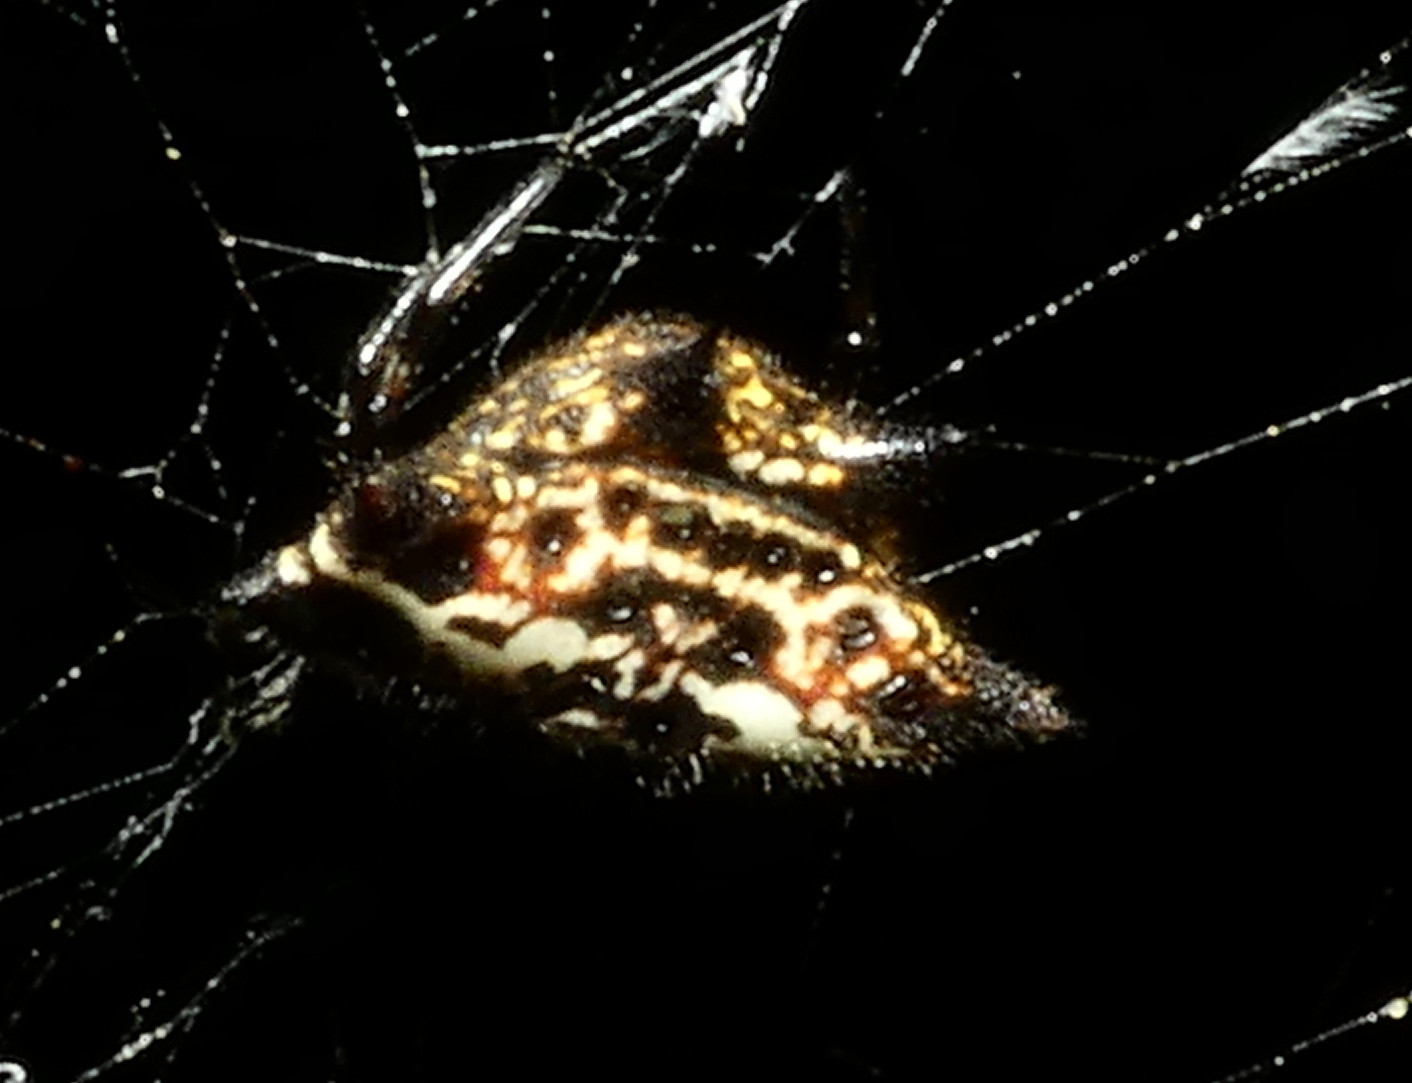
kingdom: Animalia
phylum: Arthropoda
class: Arachnida
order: Araneae
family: Araneidae
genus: Gasteracantha
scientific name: Gasteracantha cancriformis
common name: Orb weavers
